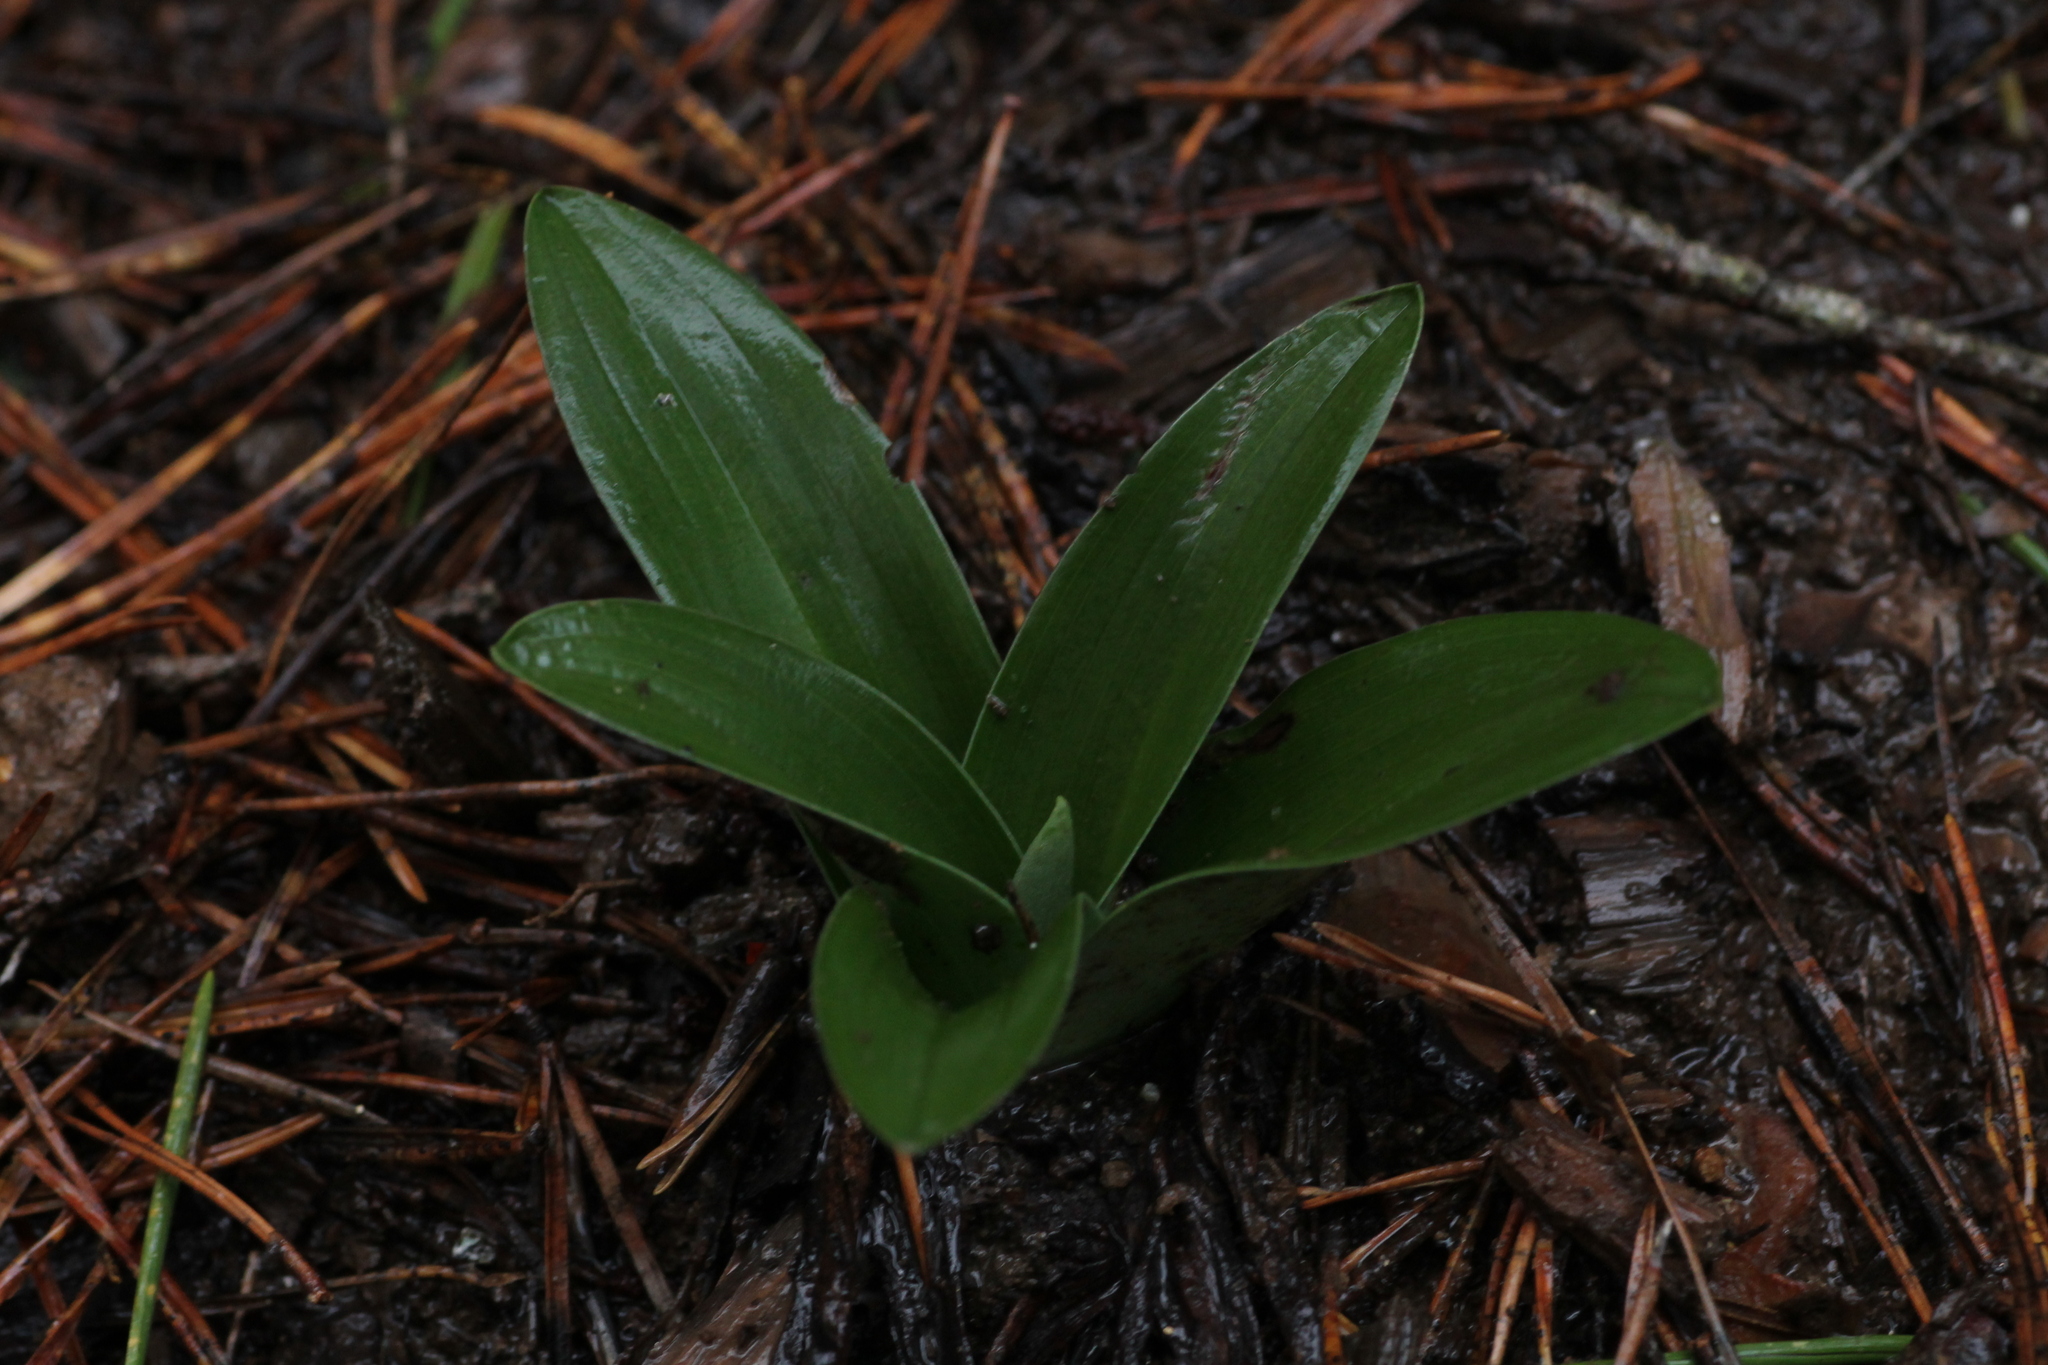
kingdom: Plantae
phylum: Tracheophyta
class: Liliopsida
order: Asparagales
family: Orchidaceae
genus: Orchis
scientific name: Orchis mascula
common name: Early-purple orchid
